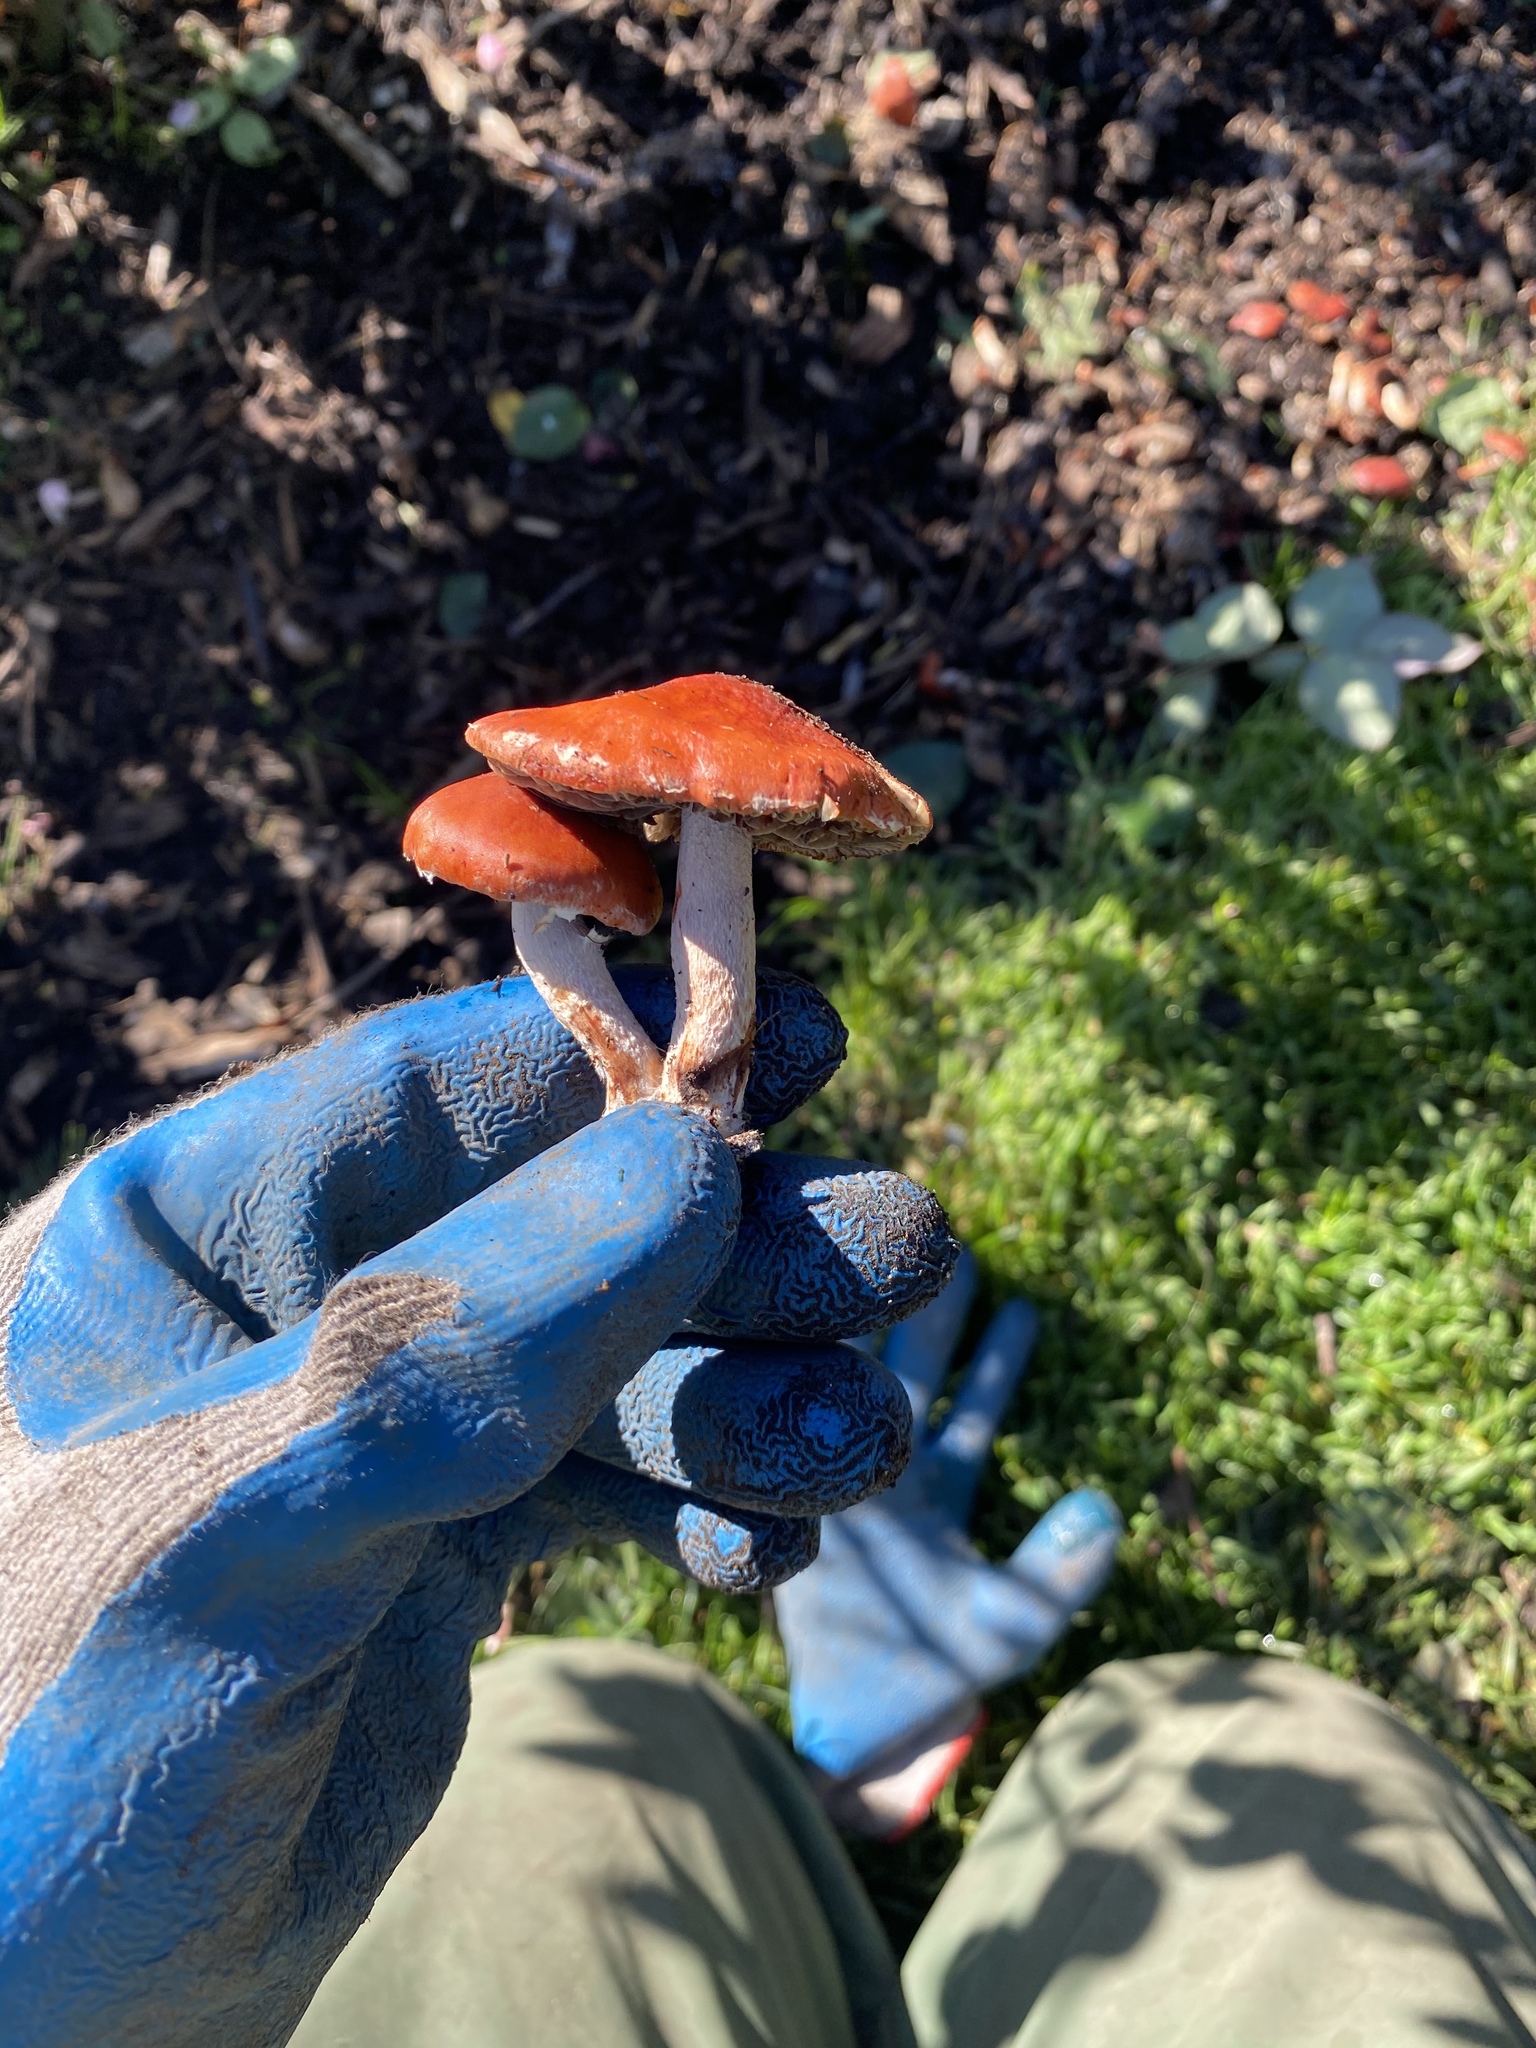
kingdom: Fungi
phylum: Basidiomycota
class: Agaricomycetes
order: Agaricales
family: Strophariaceae
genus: Leratiomyces
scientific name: Leratiomyces ceres
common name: Redlead roundhead
